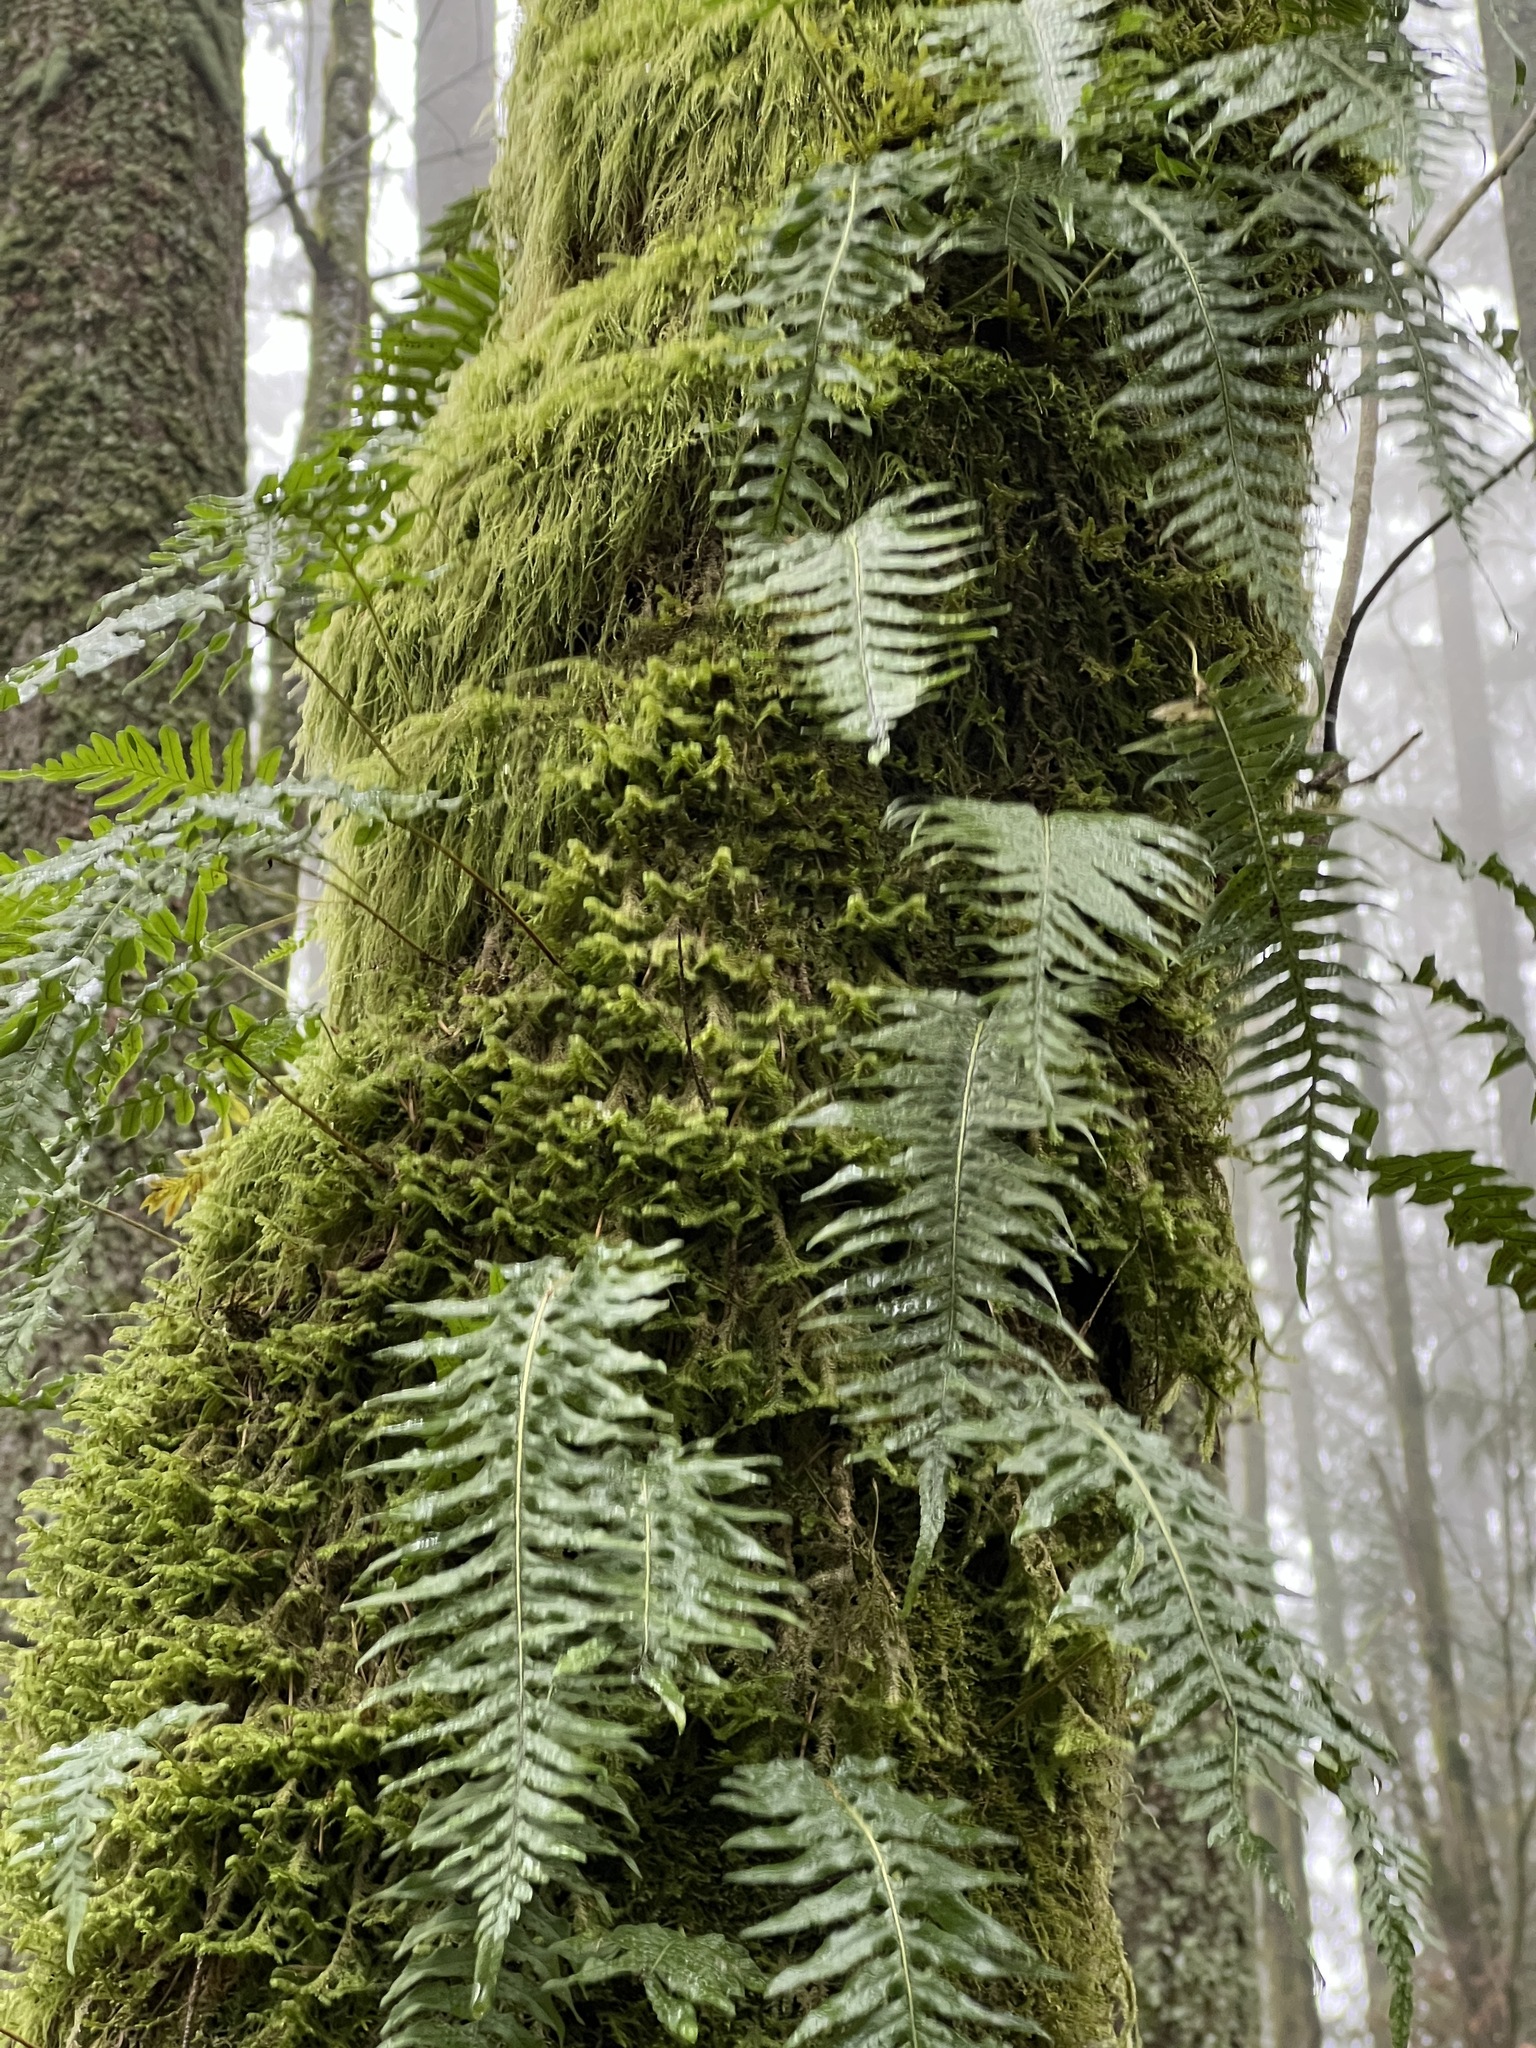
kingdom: Plantae
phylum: Tracheophyta
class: Polypodiopsida
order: Polypodiales
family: Polypodiaceae
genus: Polypodium
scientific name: Polypodium glycyrrhiza
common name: Licorice fern
